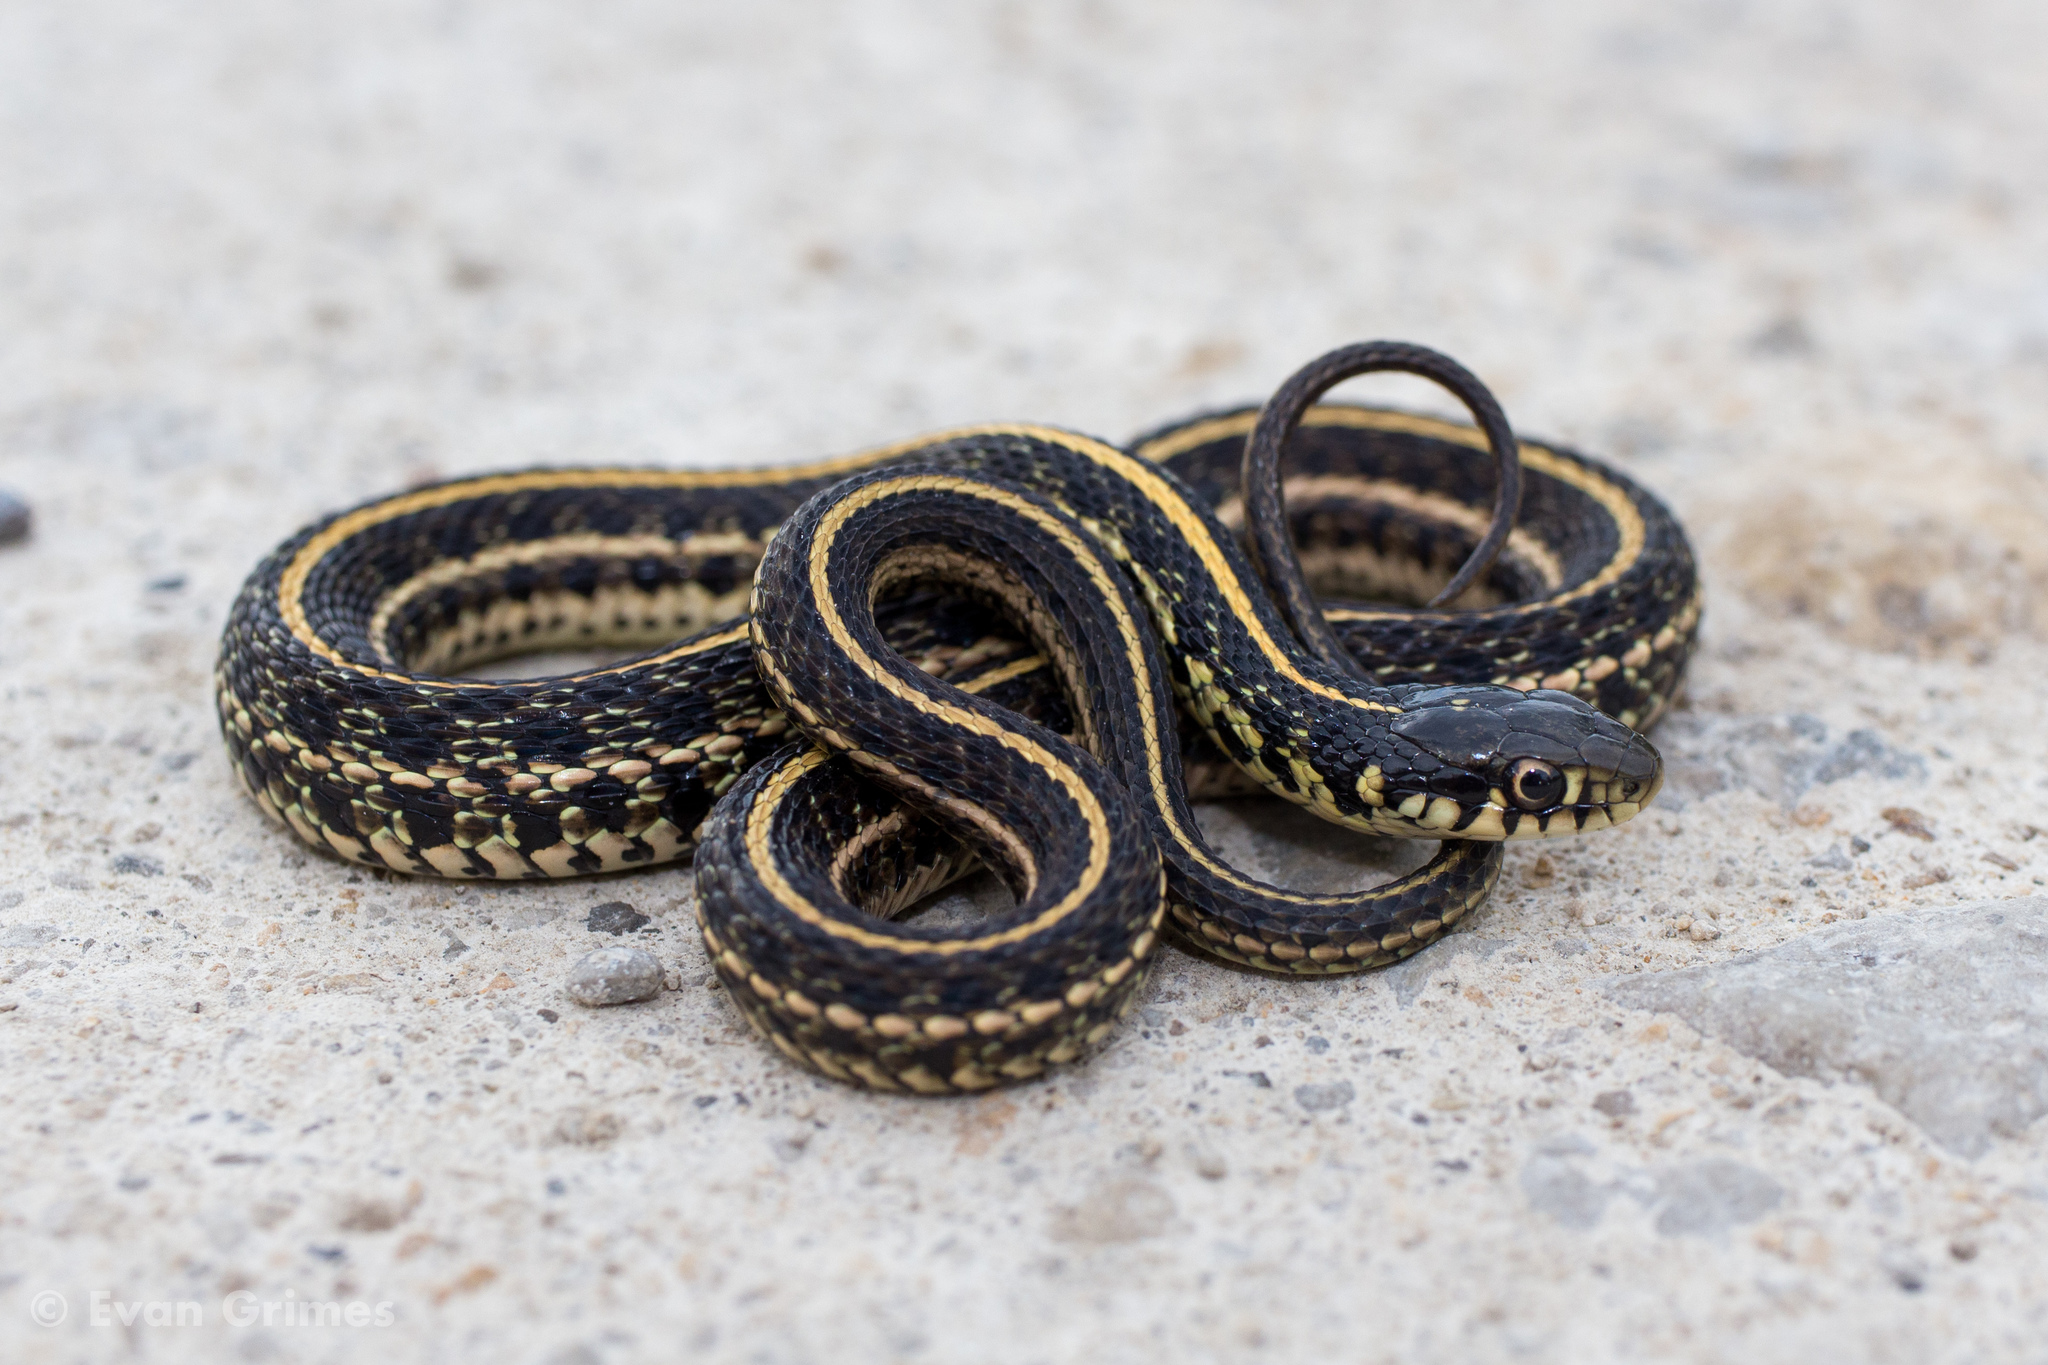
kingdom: Animalia
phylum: Chordata
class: Squamata
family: Colubridae
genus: Thamnophis
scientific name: Thamnophis radix
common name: Plains garter snake
